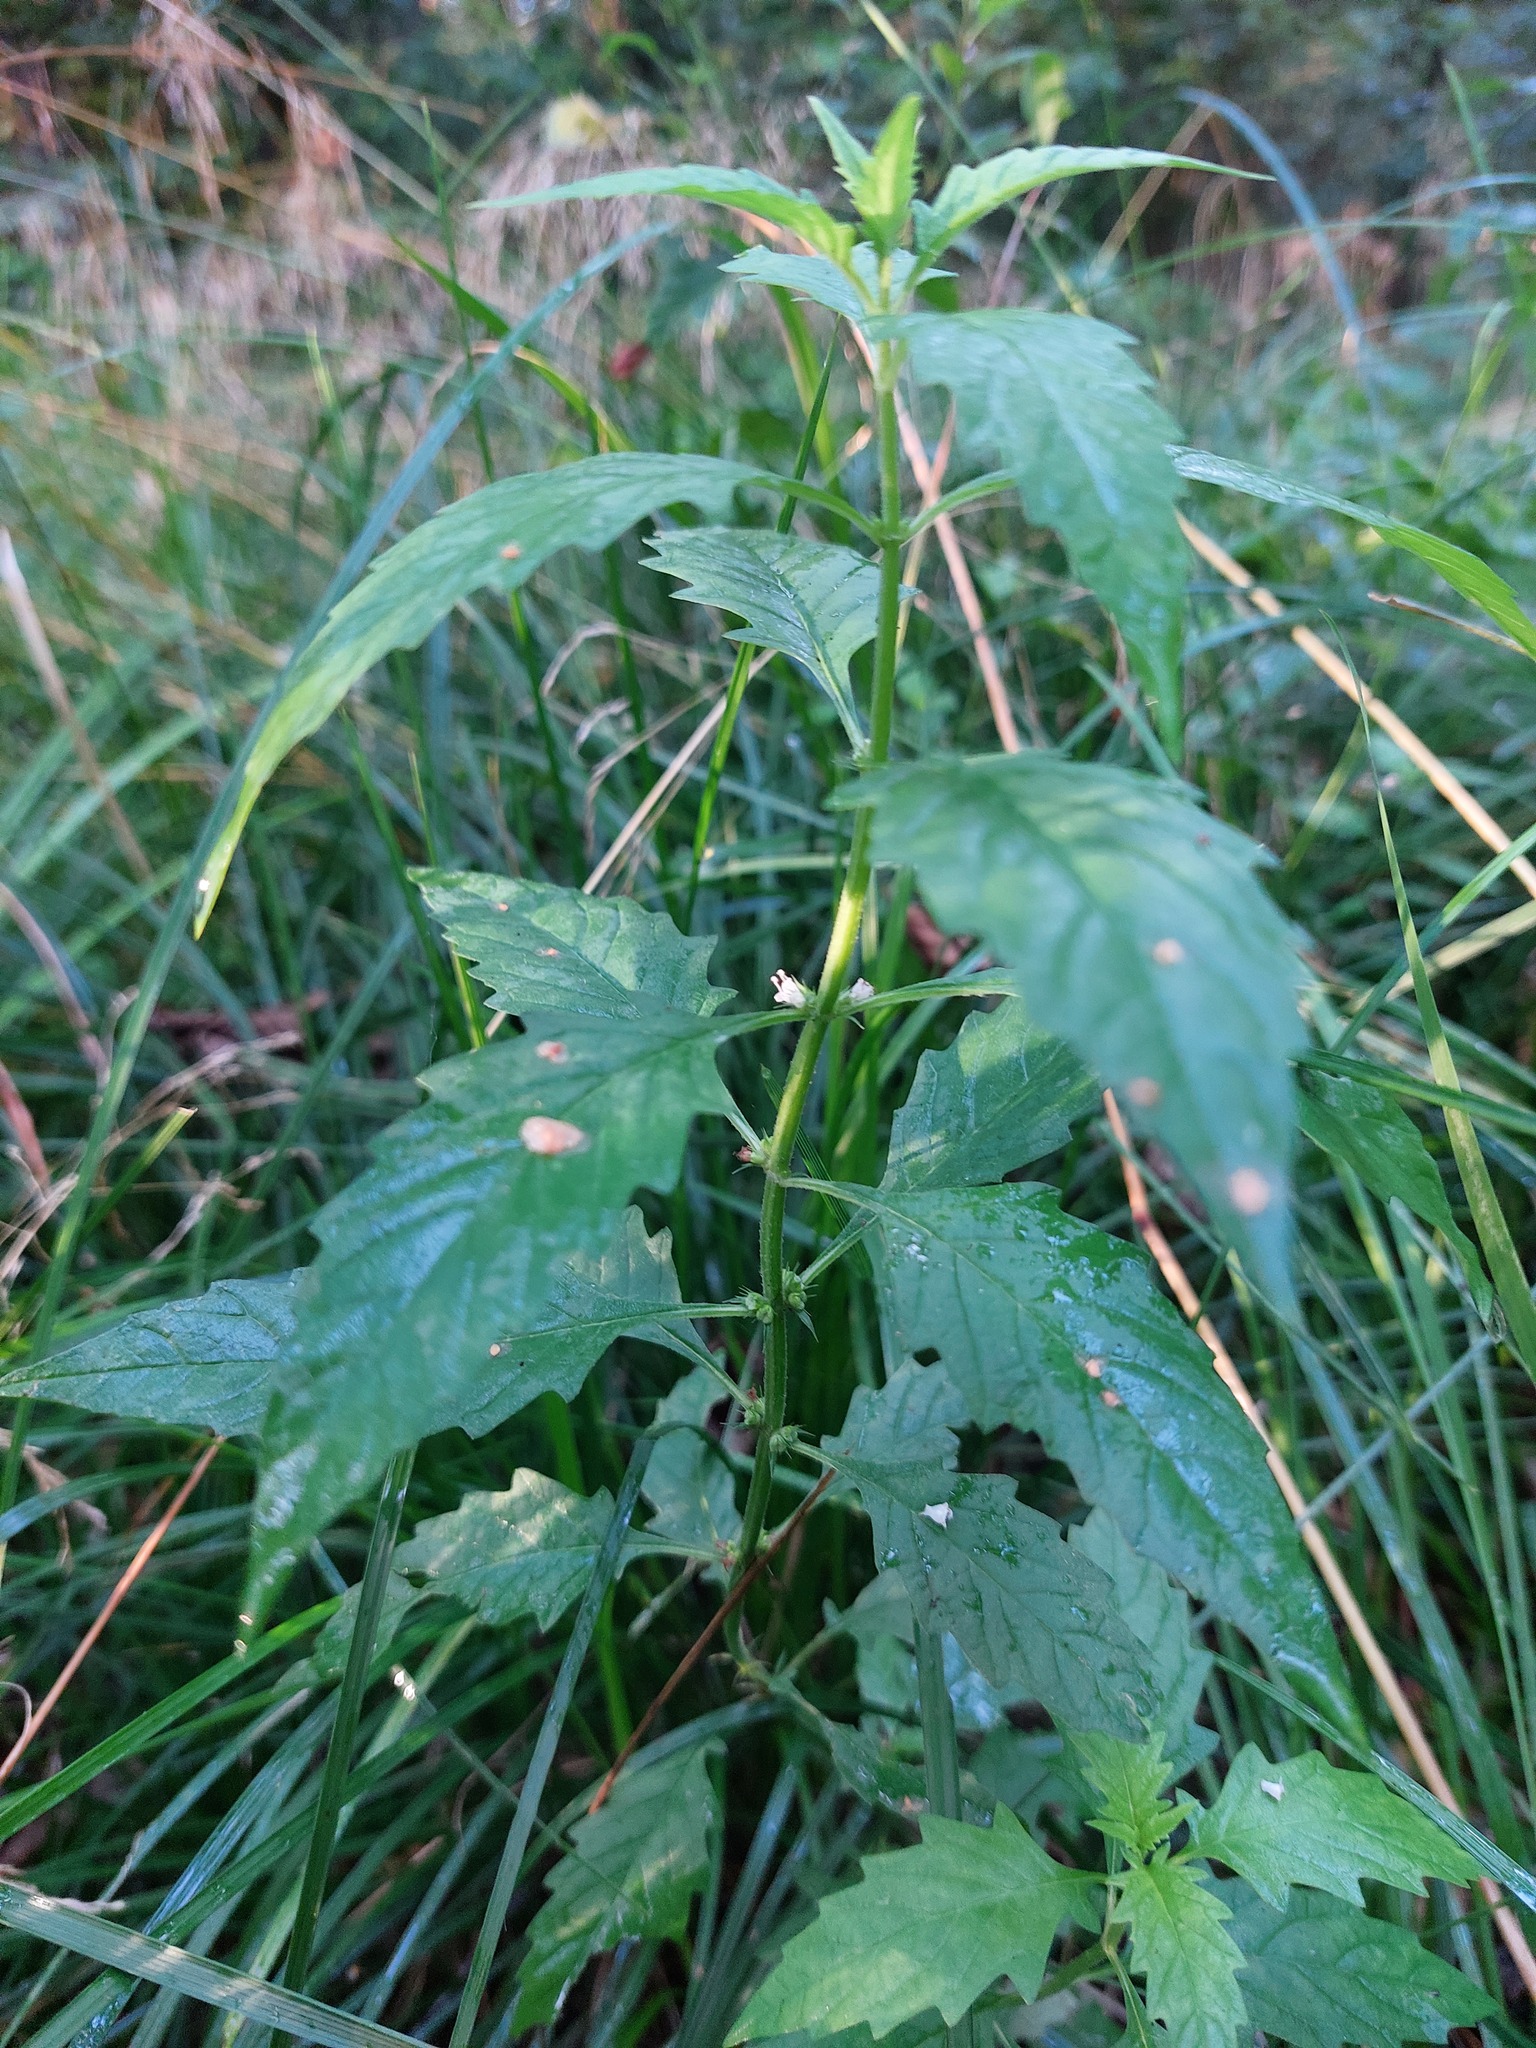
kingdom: Plantae
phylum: Tracheophyta
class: Magnoliopsida
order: Lamiales
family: Lamiaceae
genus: Lycopus
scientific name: Lycopus europaeus
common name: European bugleweed
